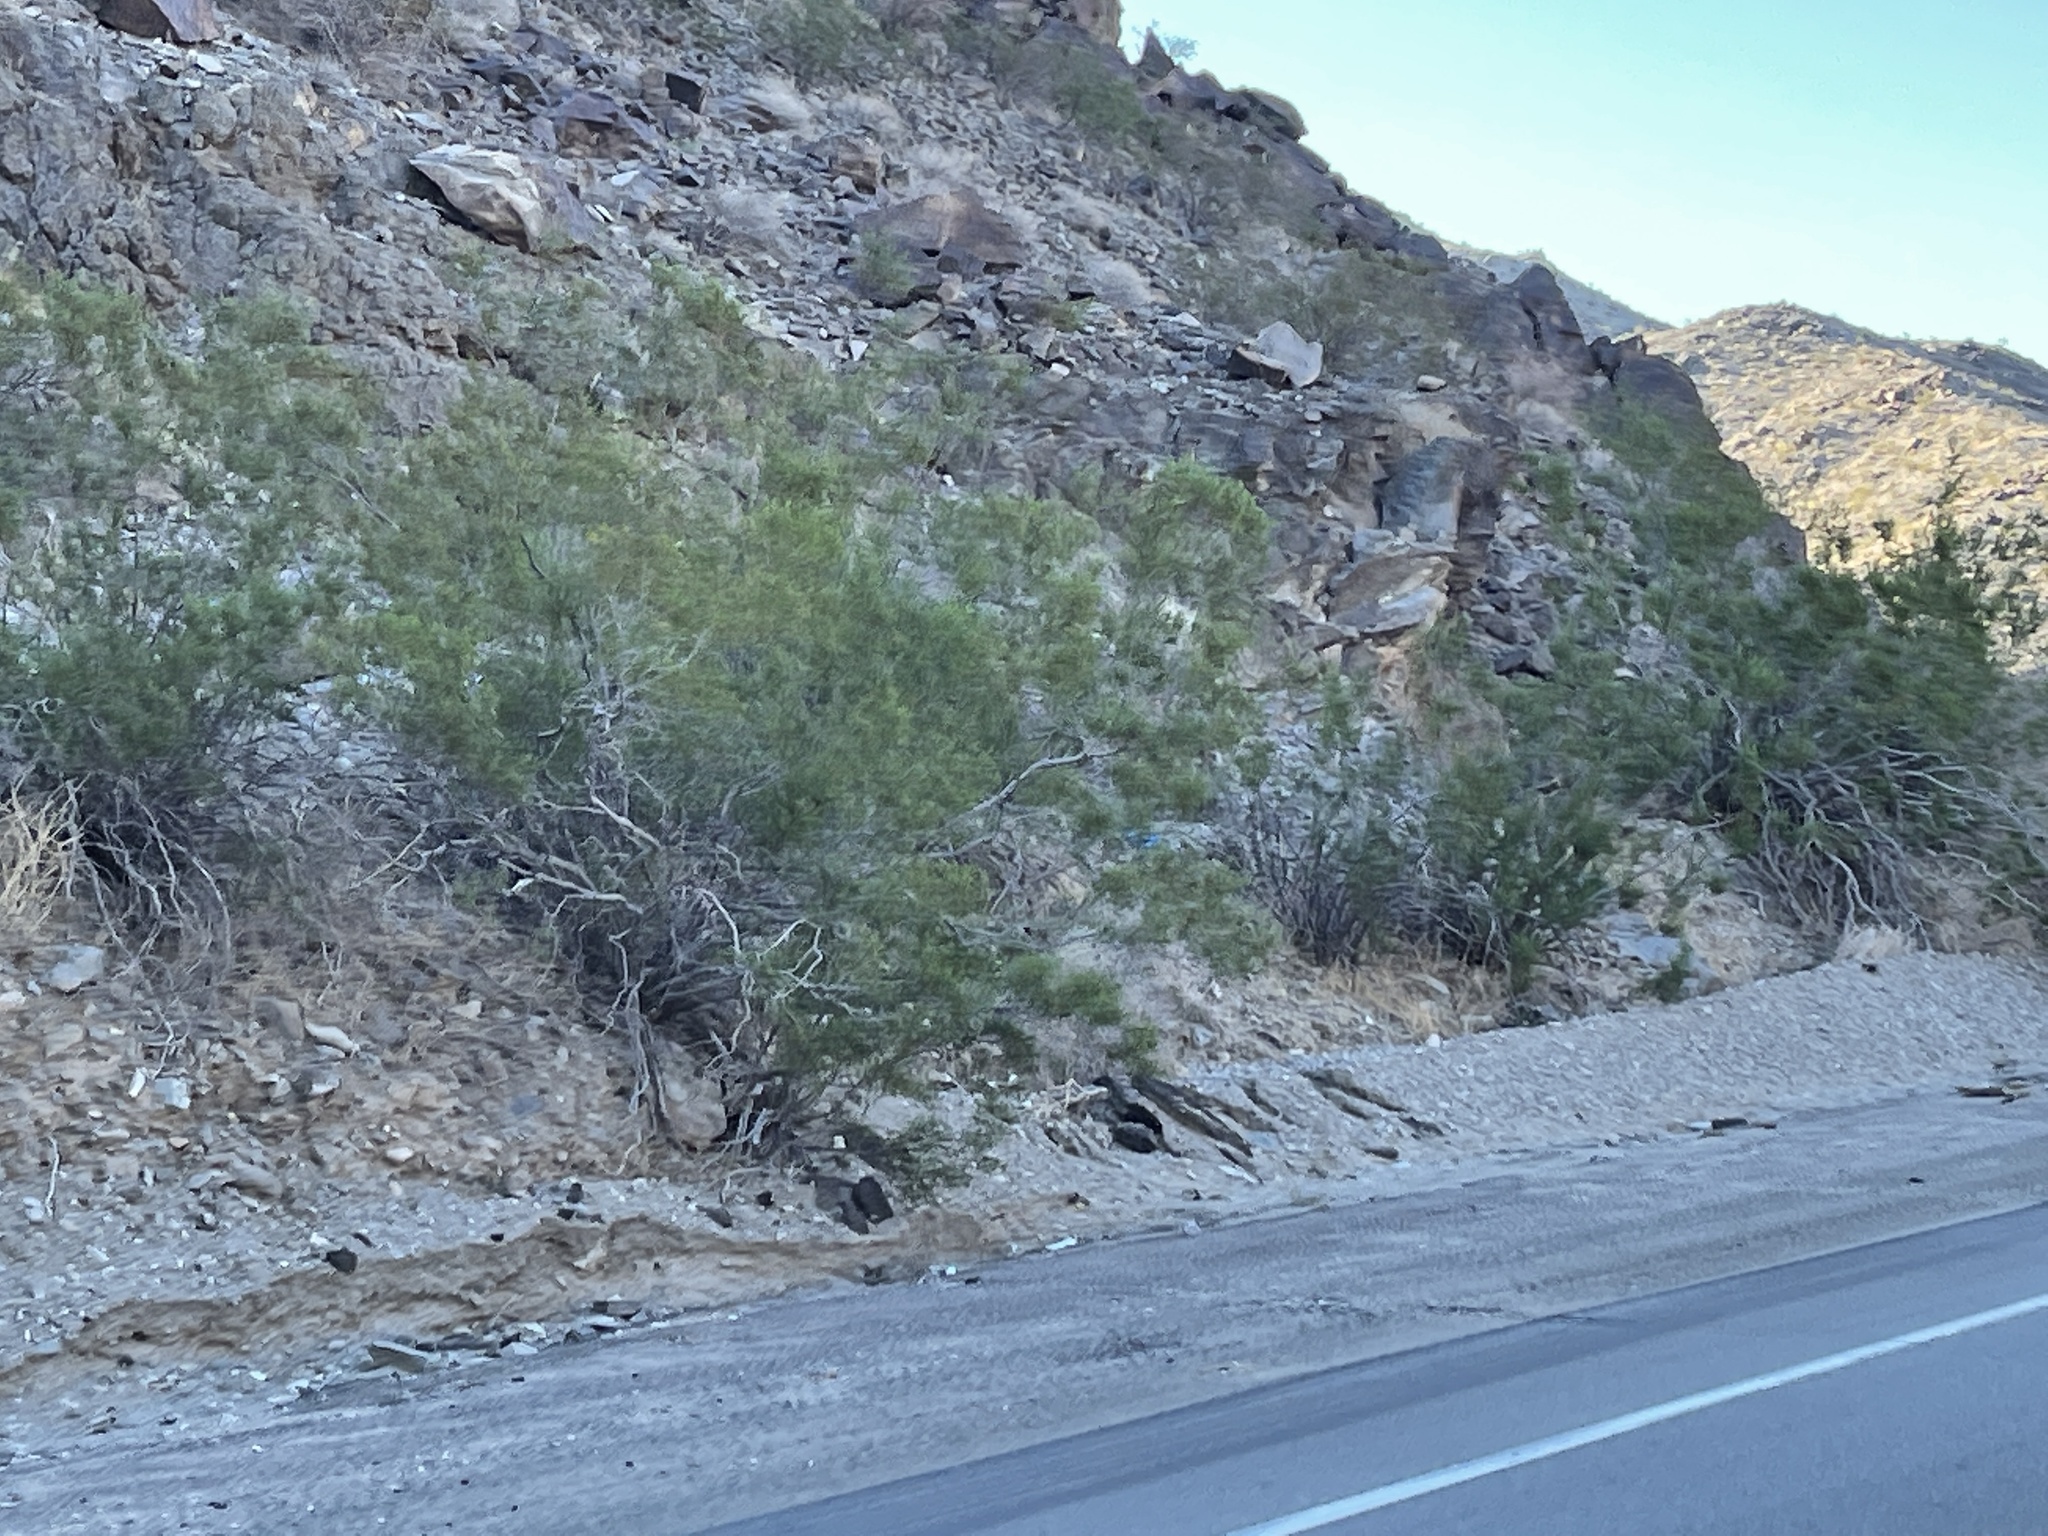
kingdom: Plantae
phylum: Tracheophyta
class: Magnoliopsida
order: Zygophyllales
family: Zygophyllaceae
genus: Larrea
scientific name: Larrea tridentata
